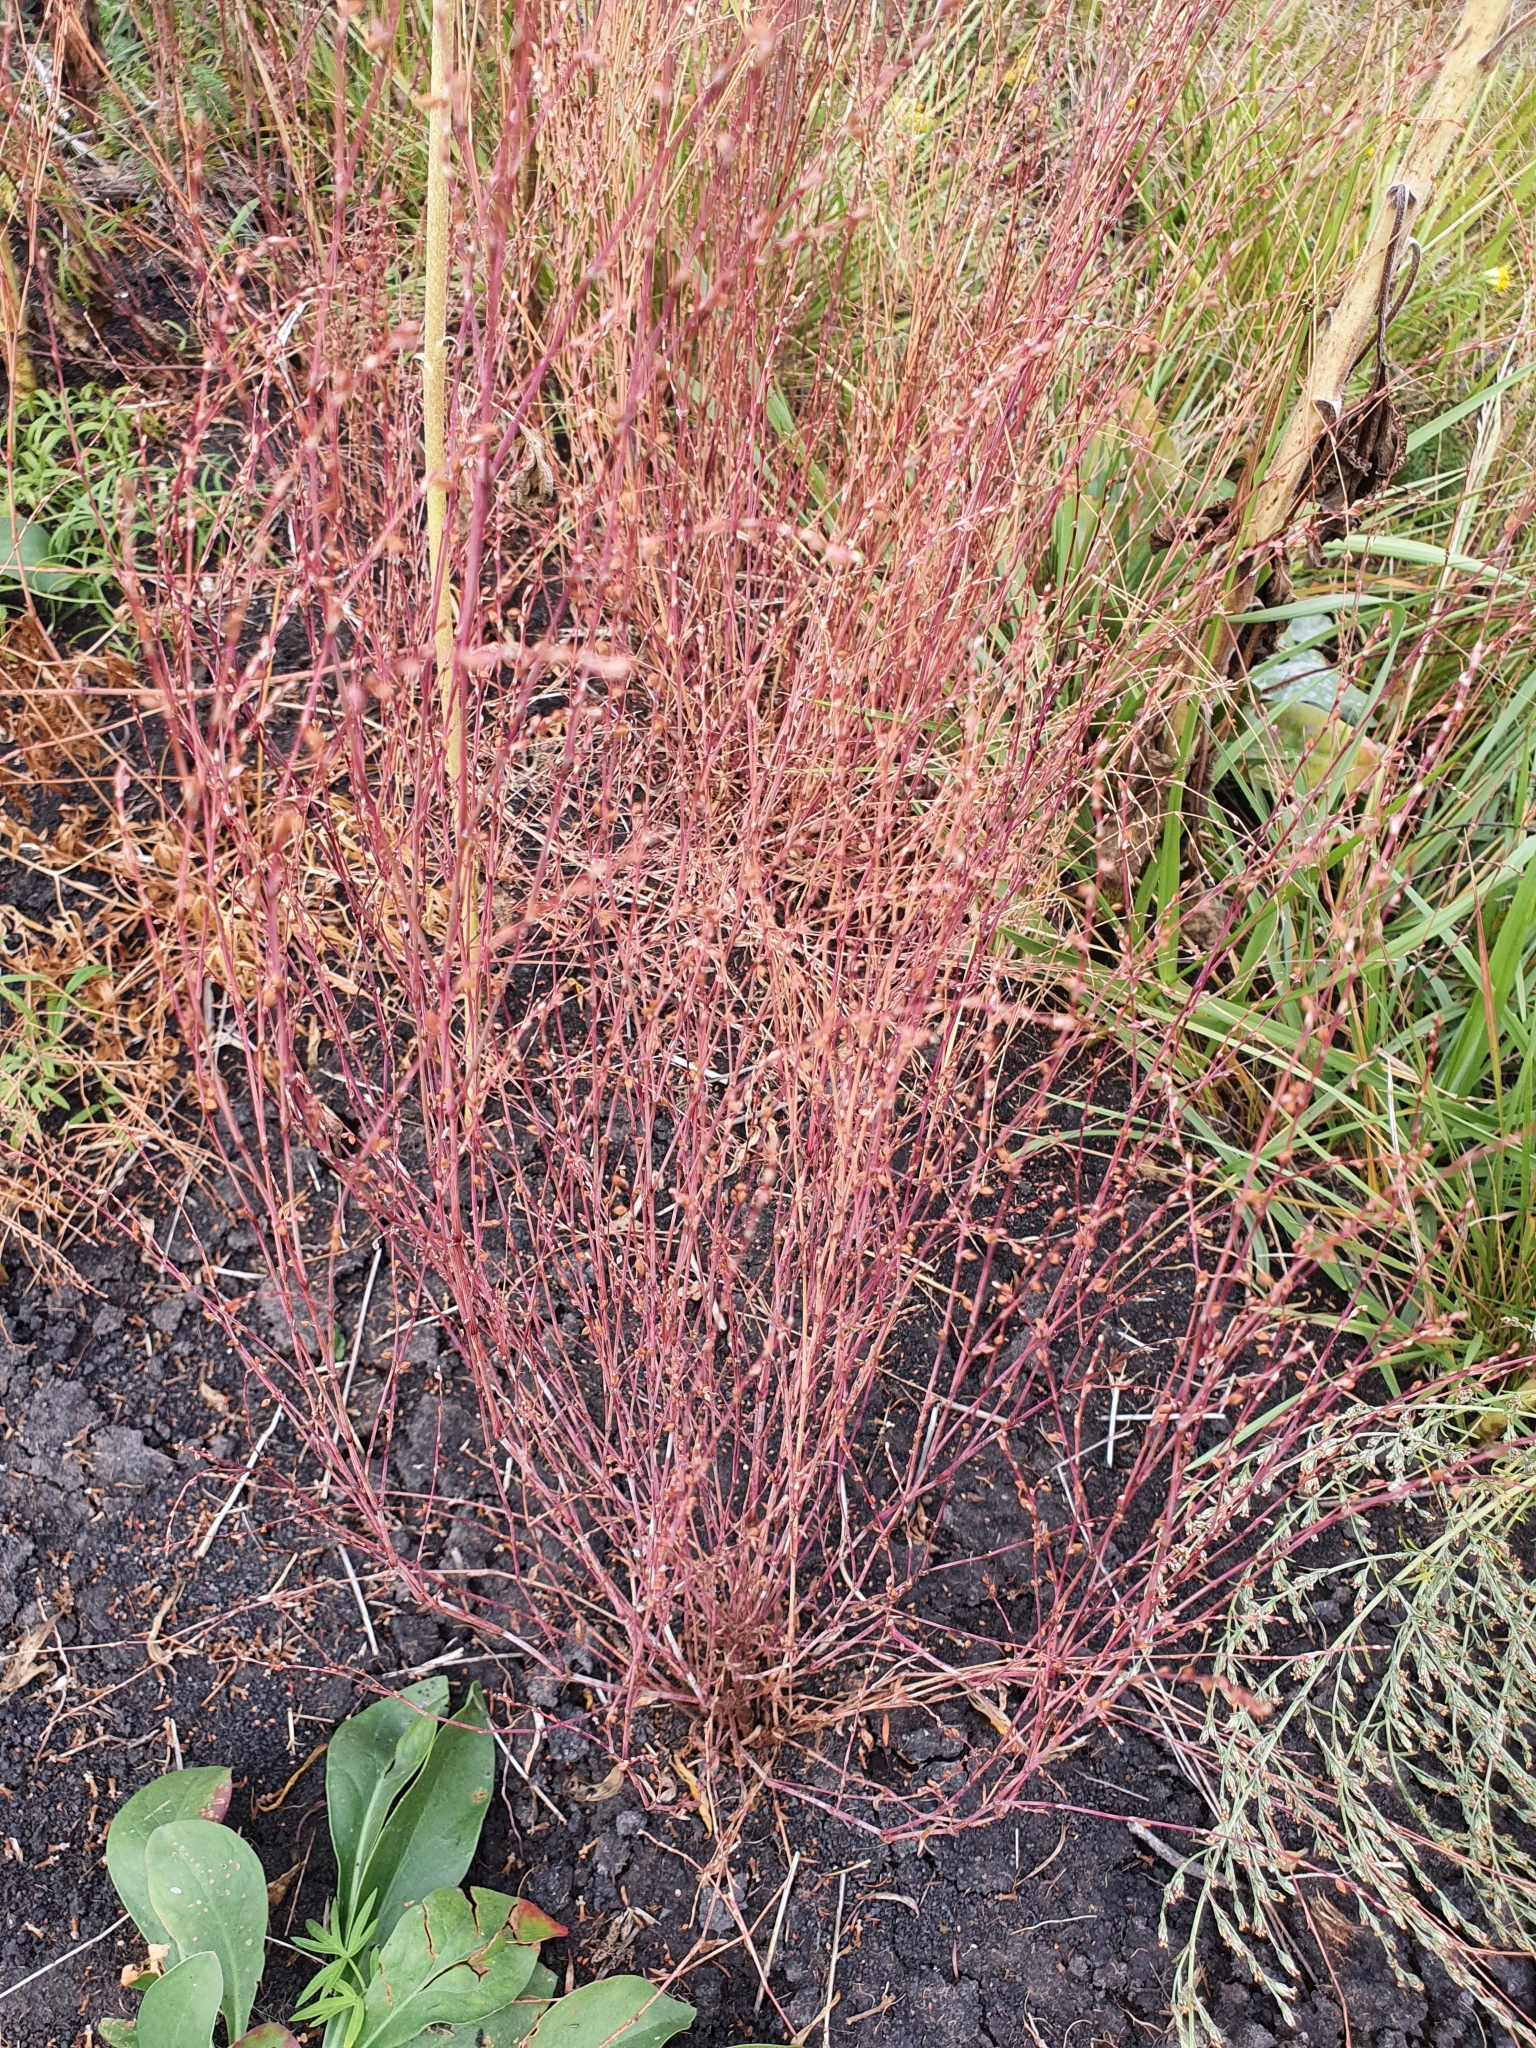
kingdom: Plantae
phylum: Tracheophyta
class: Magnoliopsida
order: Caryophyllales
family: Polygonaceae
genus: Polygonum
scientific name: Polygonum patulum
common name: Red-knotgrass
